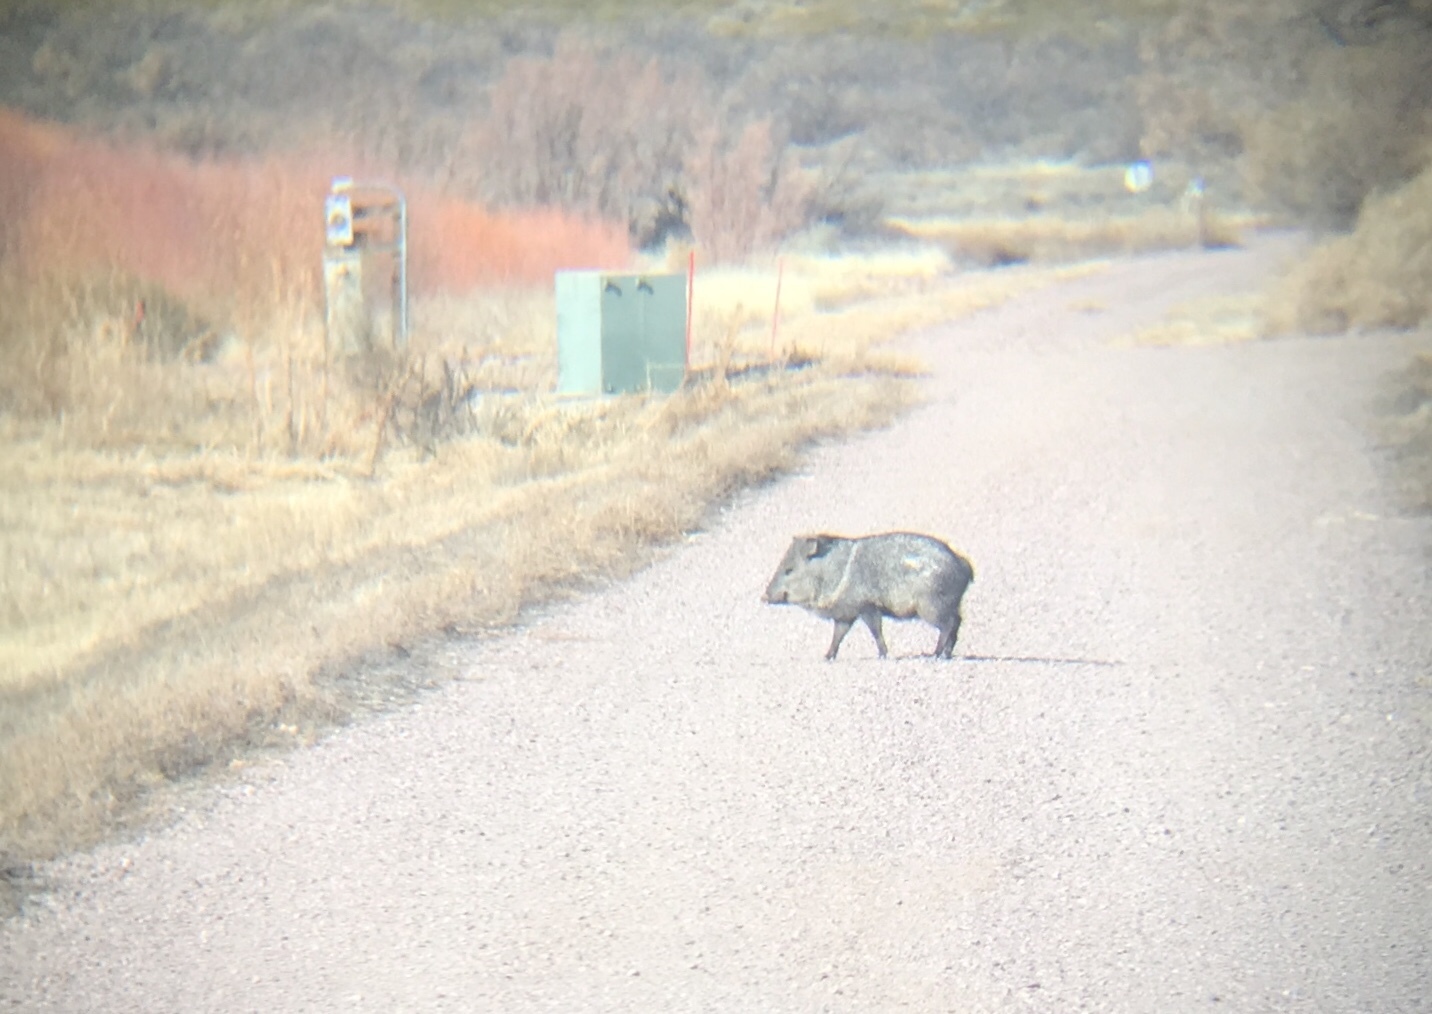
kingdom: Animalia
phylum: Chordata
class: Mammalia
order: Artiodactyla
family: Tayassuidae
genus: Pecari
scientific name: Pecari tajacu
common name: Collared peccary
